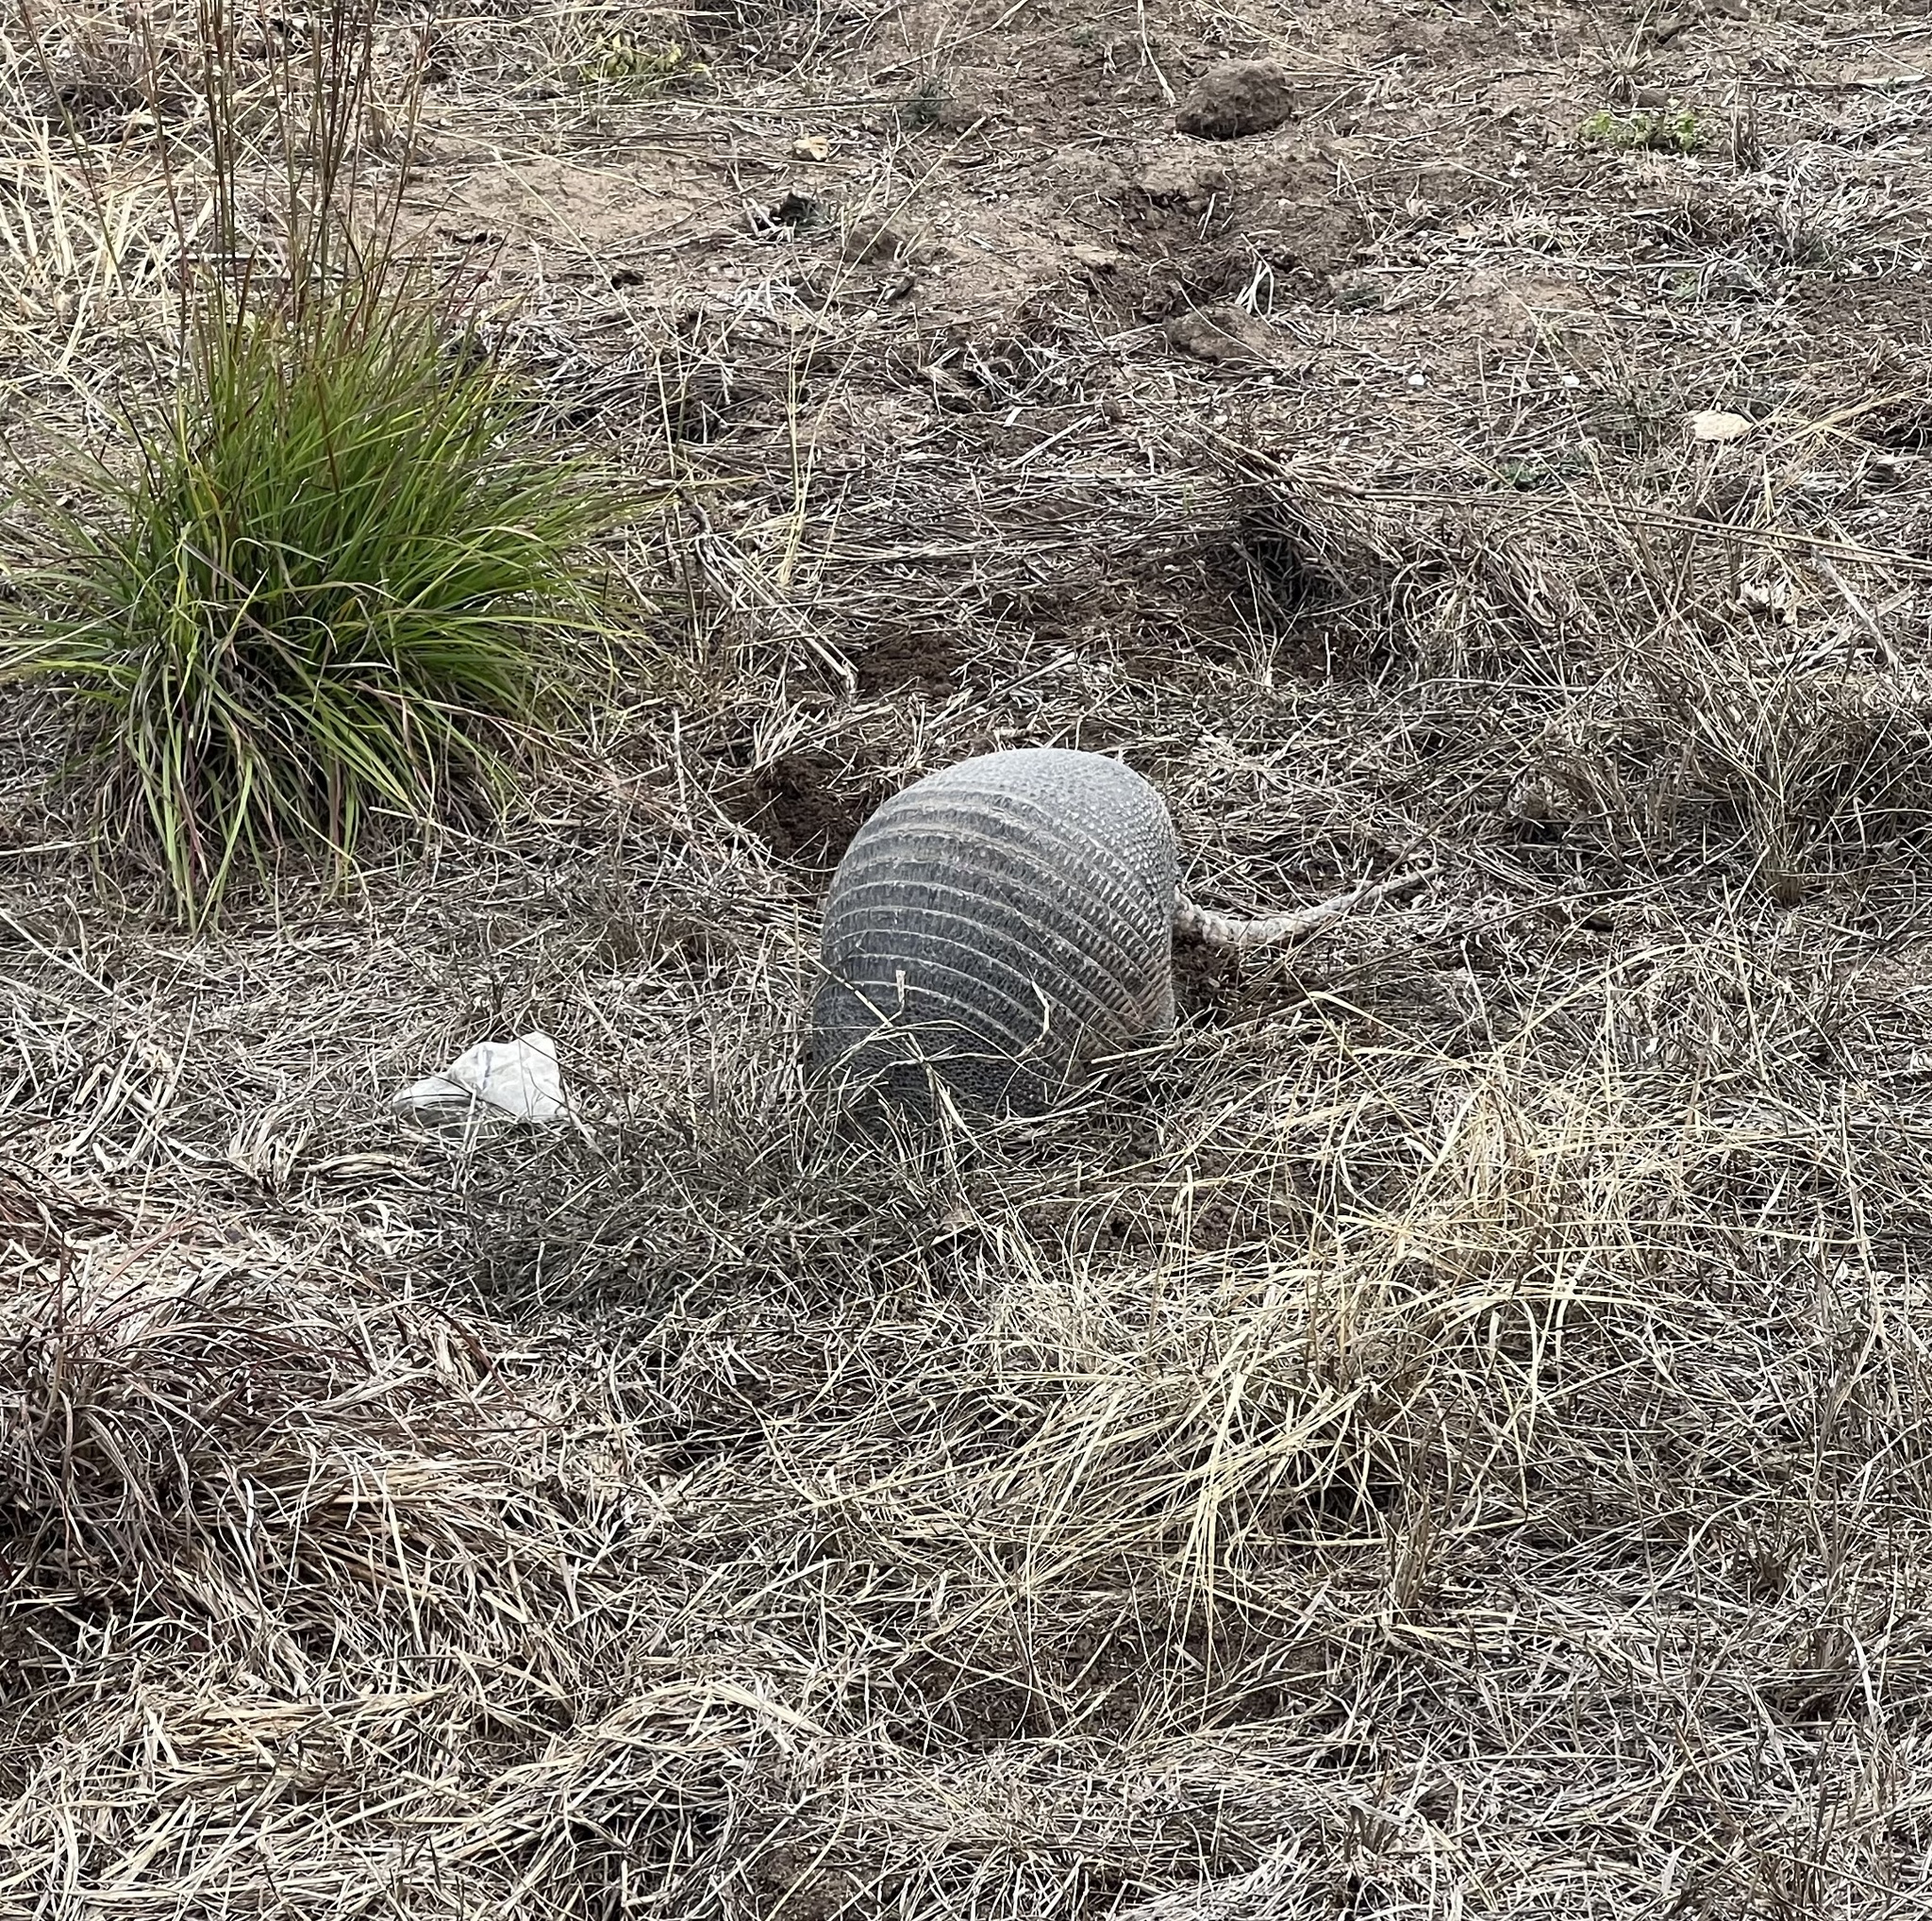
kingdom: Animalia
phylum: Chordata
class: Mammalia
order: Cingulata
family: Dasypodidae
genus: Dasypus
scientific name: Dasypus novemcinctus
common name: Nine-banded armadillo
